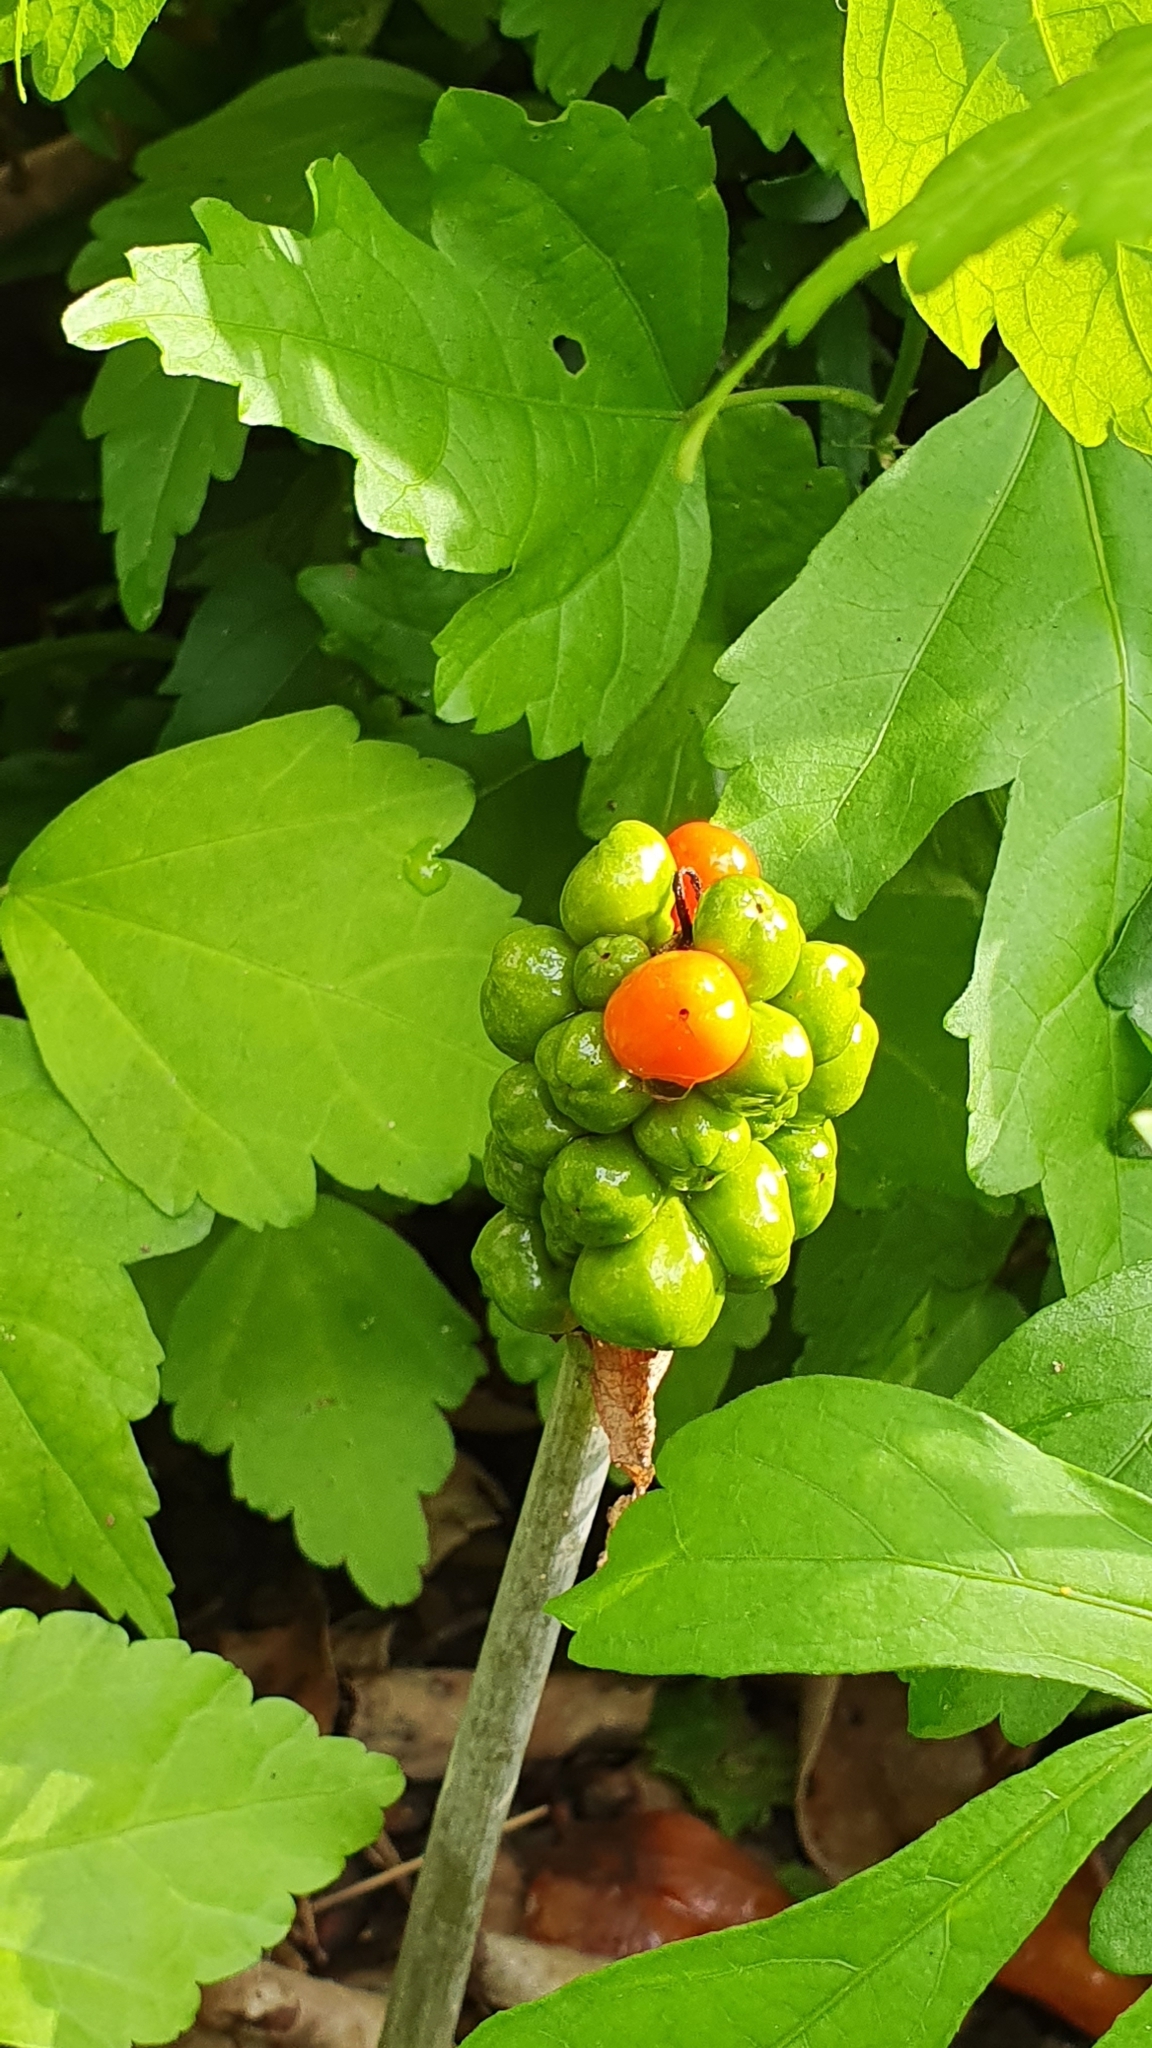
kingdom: Plantae
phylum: Tracheophyta
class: Liliopsida
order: Alismatales
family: Araceae
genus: Arum
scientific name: Arum maculatum
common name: Lords-and-ladies
